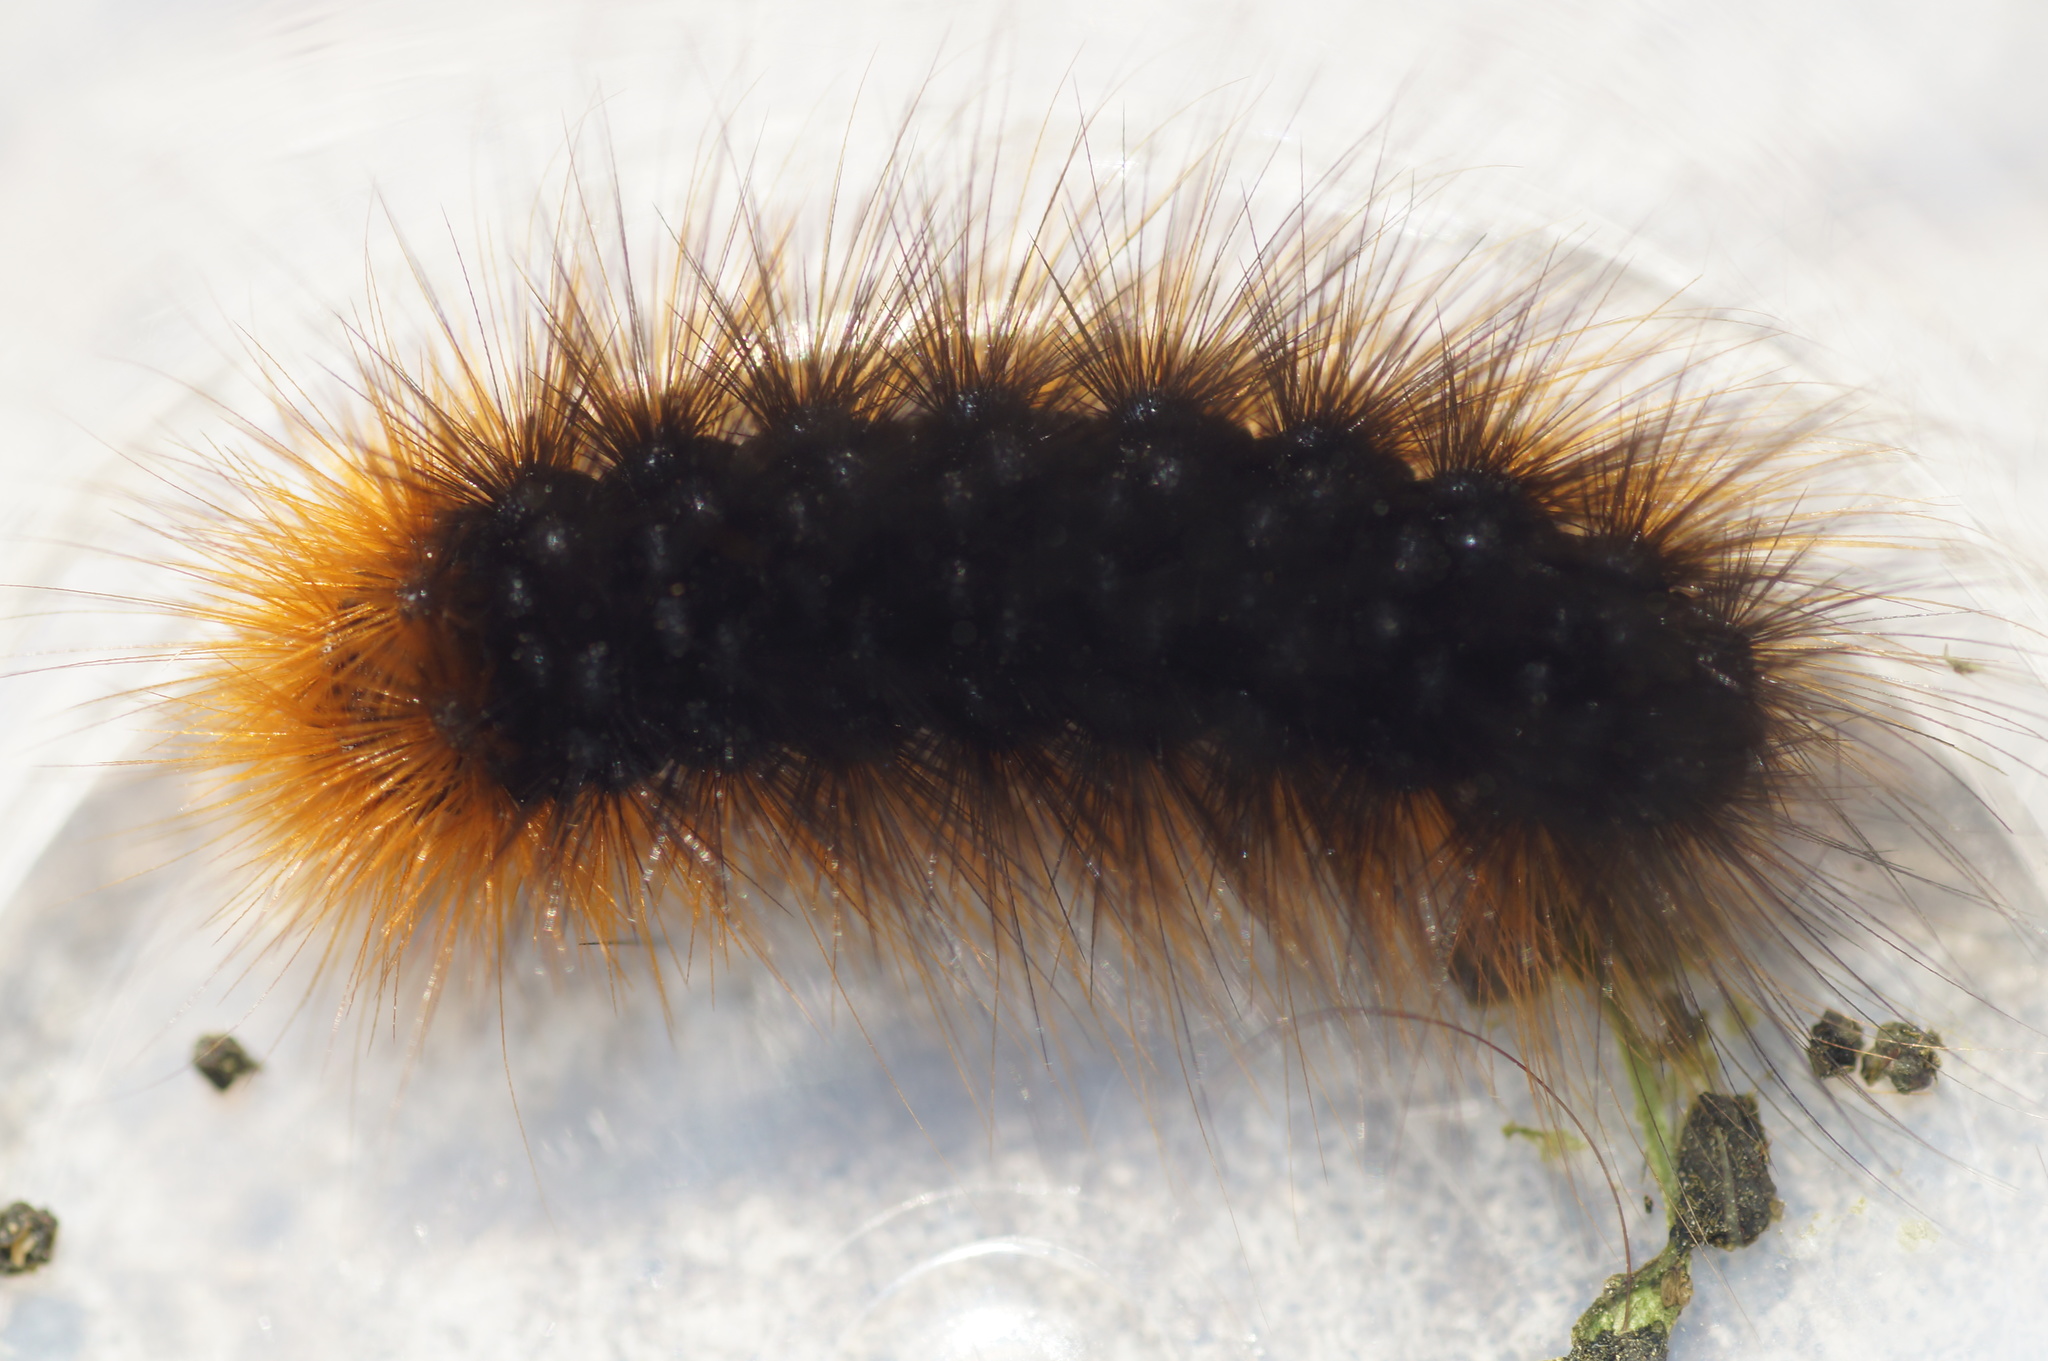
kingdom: Animalia
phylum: Arthropoda
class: Insecta
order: Lepidoptera
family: Erebidae
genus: Arctia
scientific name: Arctia caja
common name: Garden tiger
